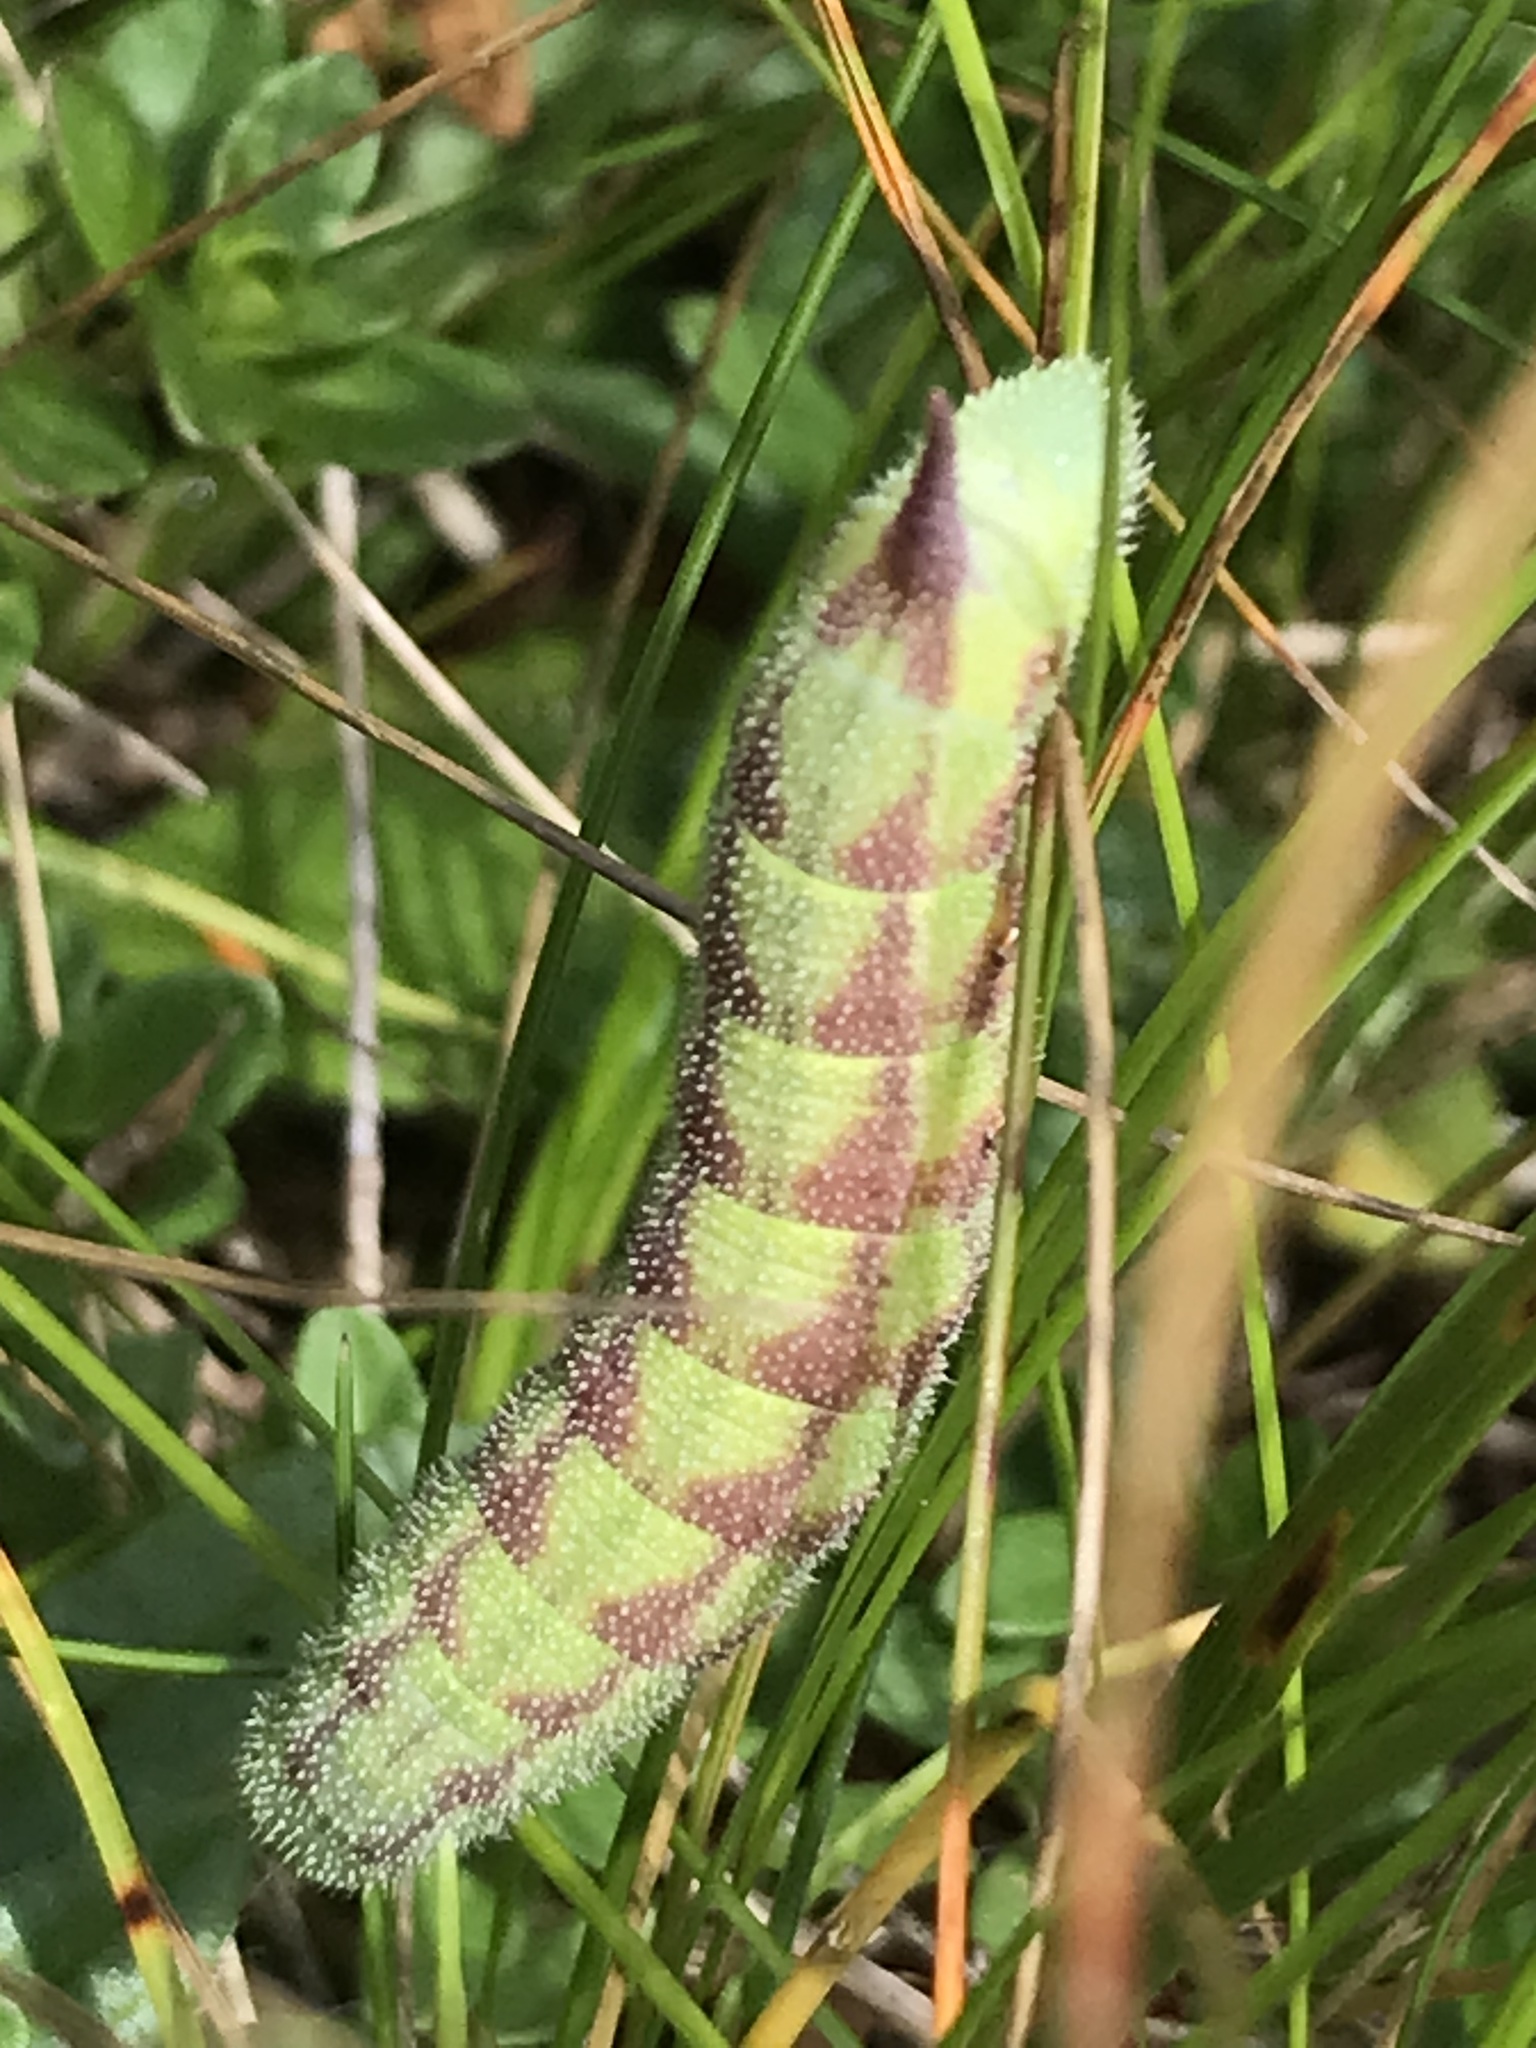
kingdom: Animalia
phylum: Arthropoda
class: Insecta
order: Lepidoptera
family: Sphingidae
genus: Hemaris
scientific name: Hemaris tityus
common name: Narrow-bordered bee hawk-moth
